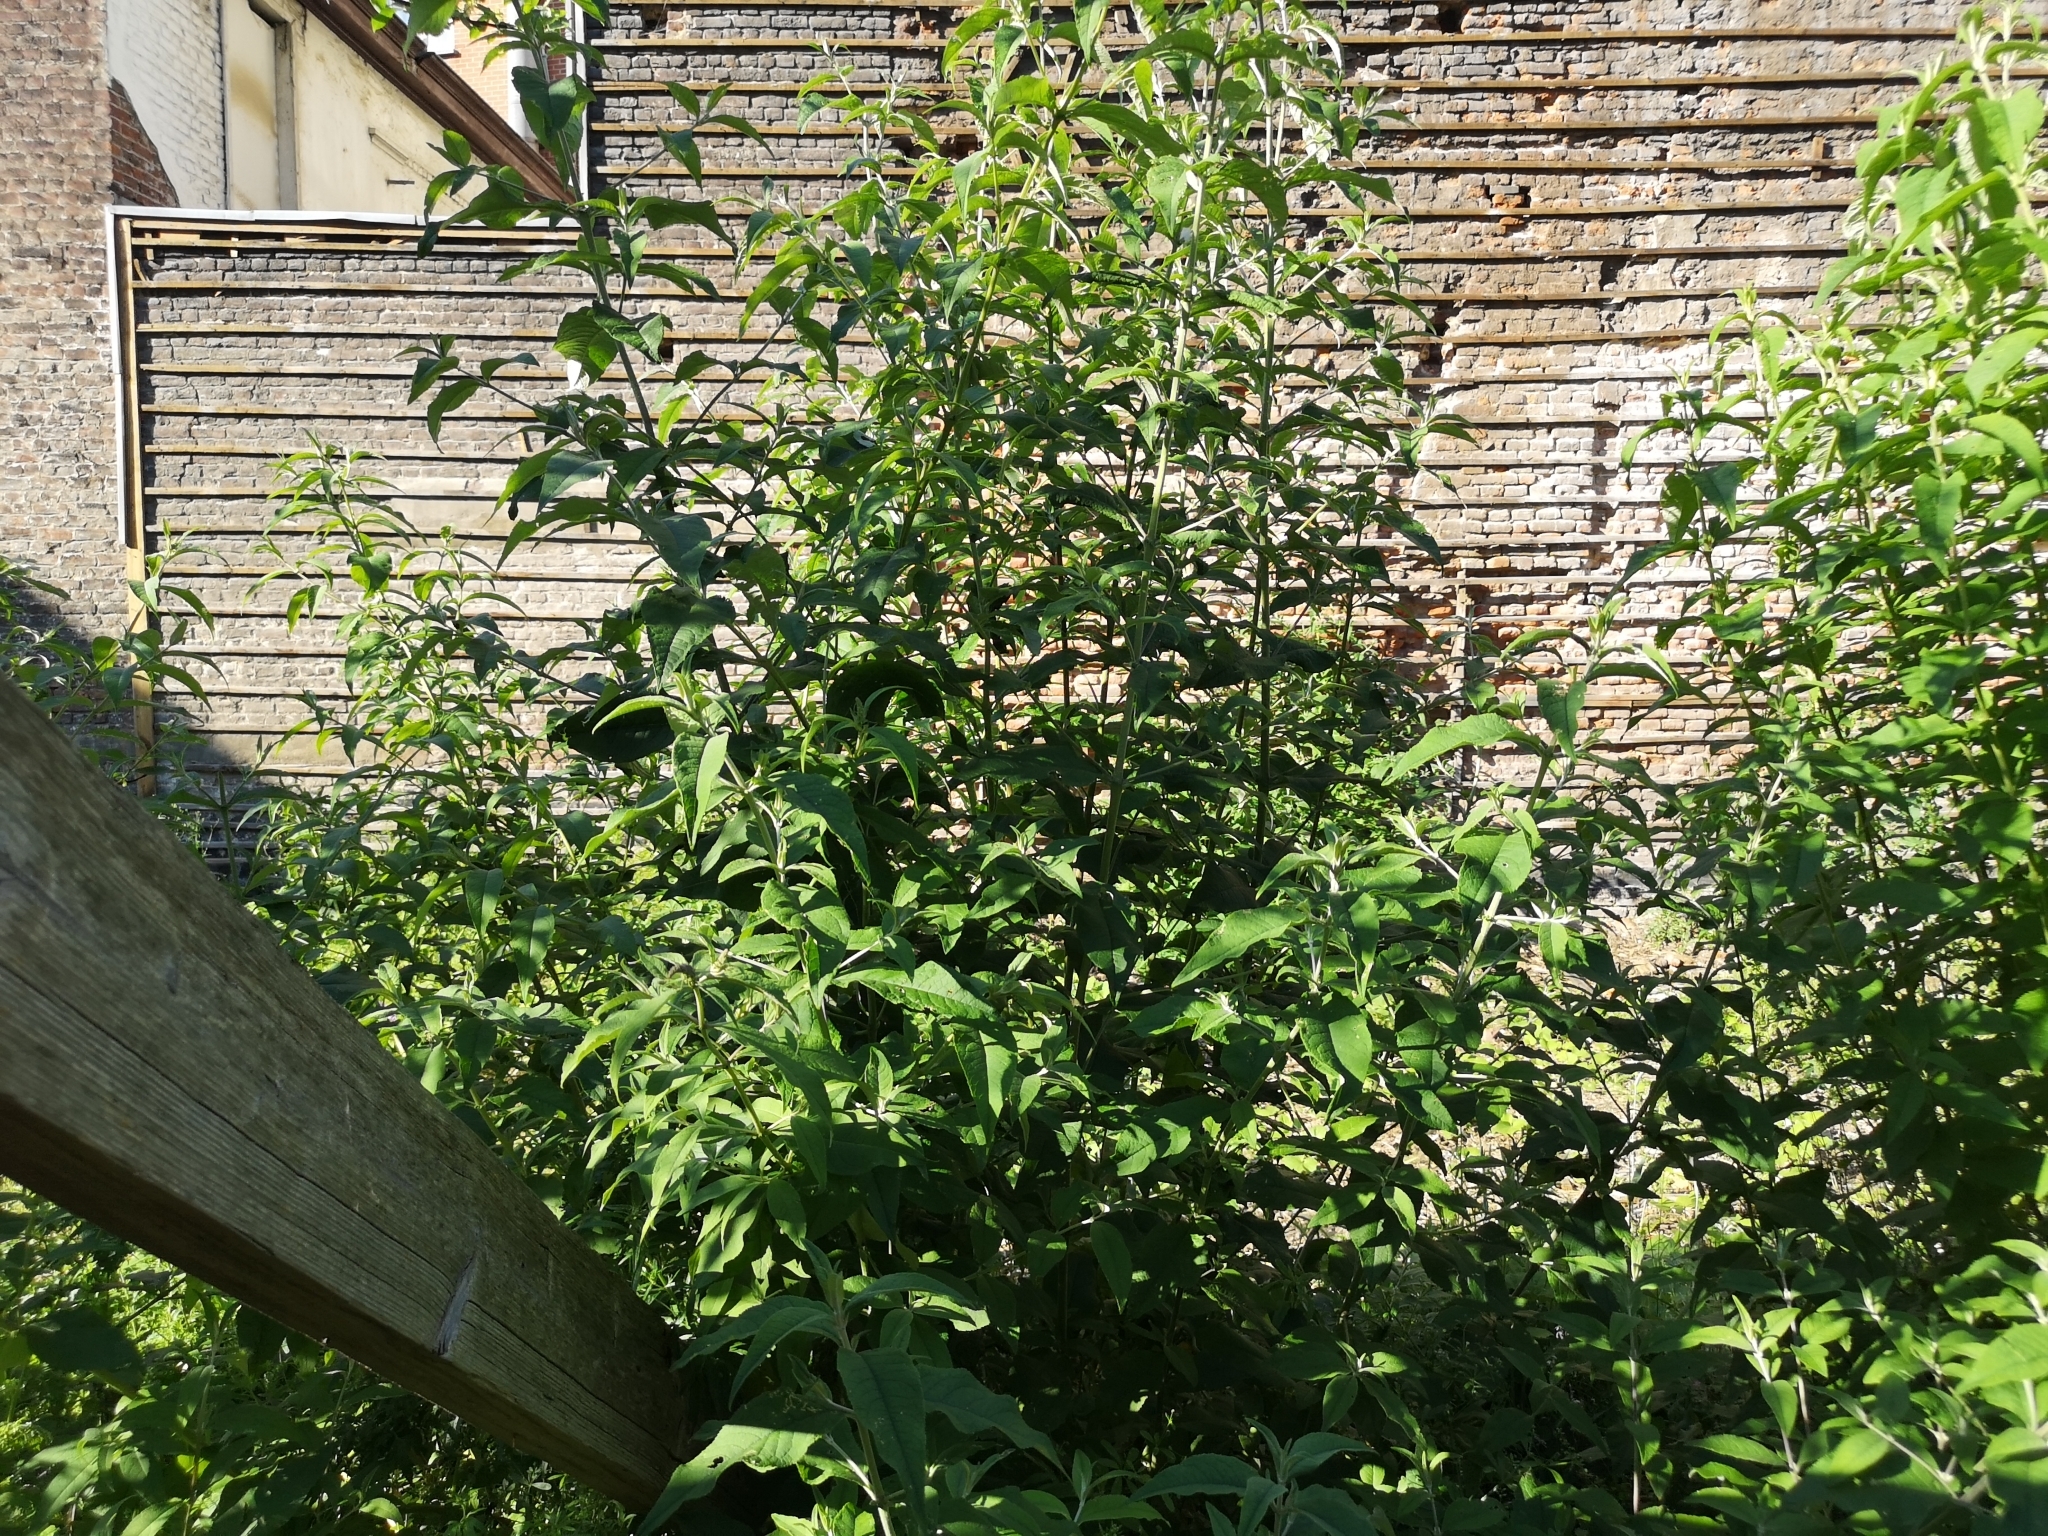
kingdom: Plantae
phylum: Tracheophyta
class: Magnoliopsida
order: Lamiales
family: Scrophulariaceae
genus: Buddleja
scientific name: Buddleja davidii
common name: Butterfly-bush
